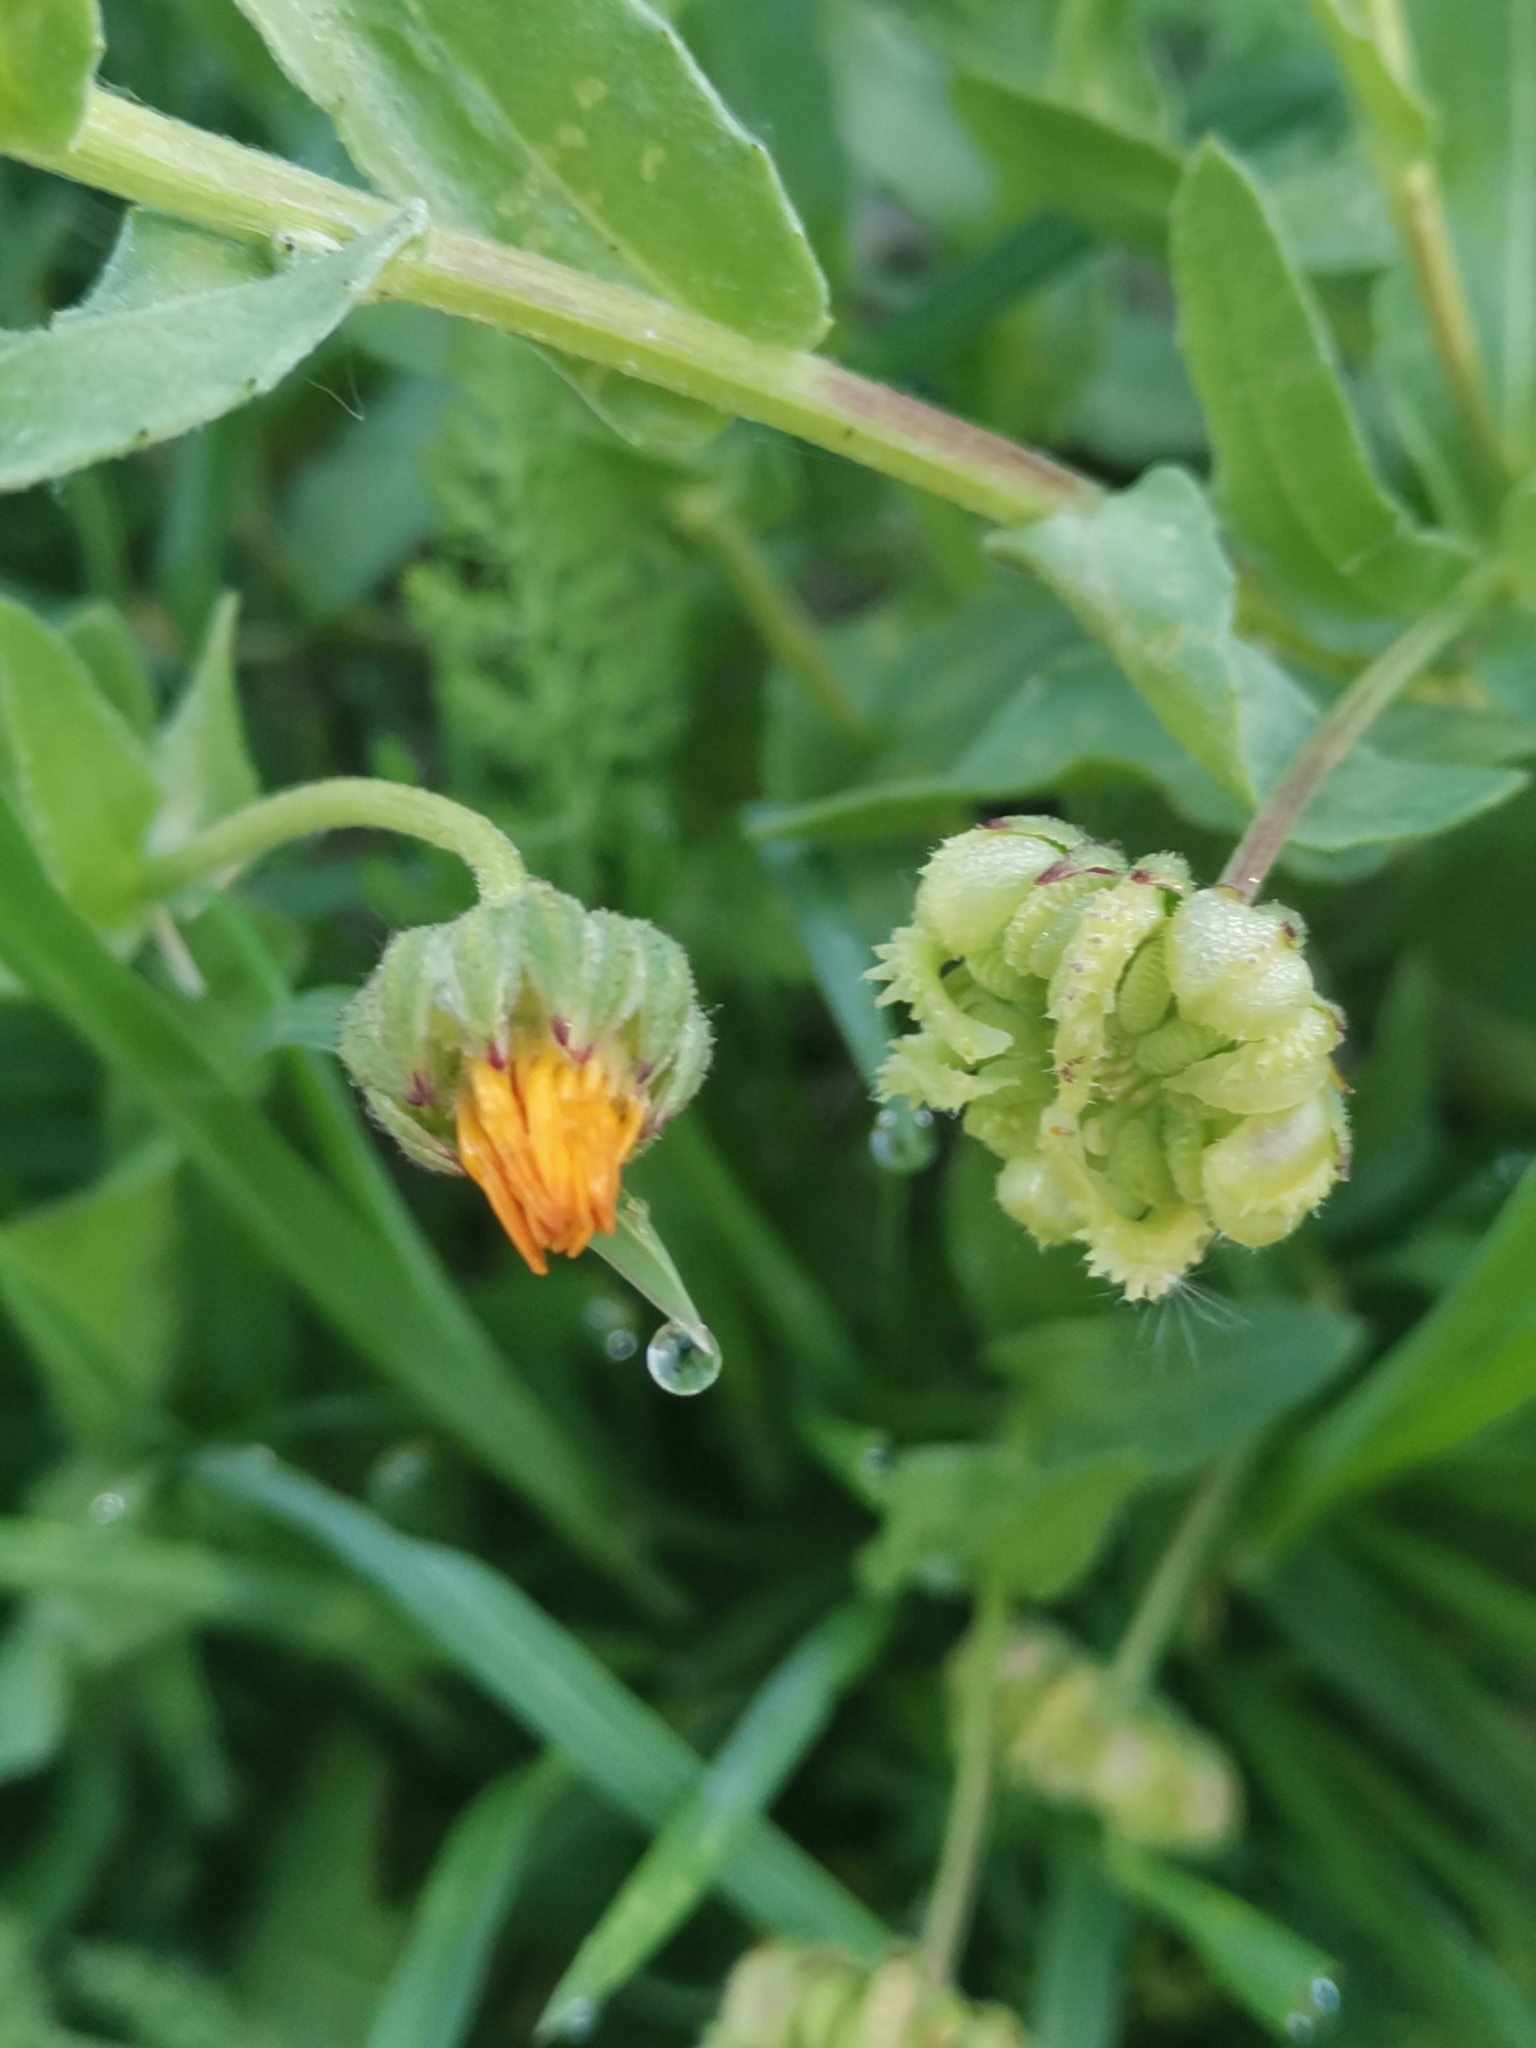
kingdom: Plantae
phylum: Tracheophyta
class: Magnoliopsida
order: Asterales
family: Asteraceae
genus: Calendula
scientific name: Calendula arvensis
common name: Field marigold
